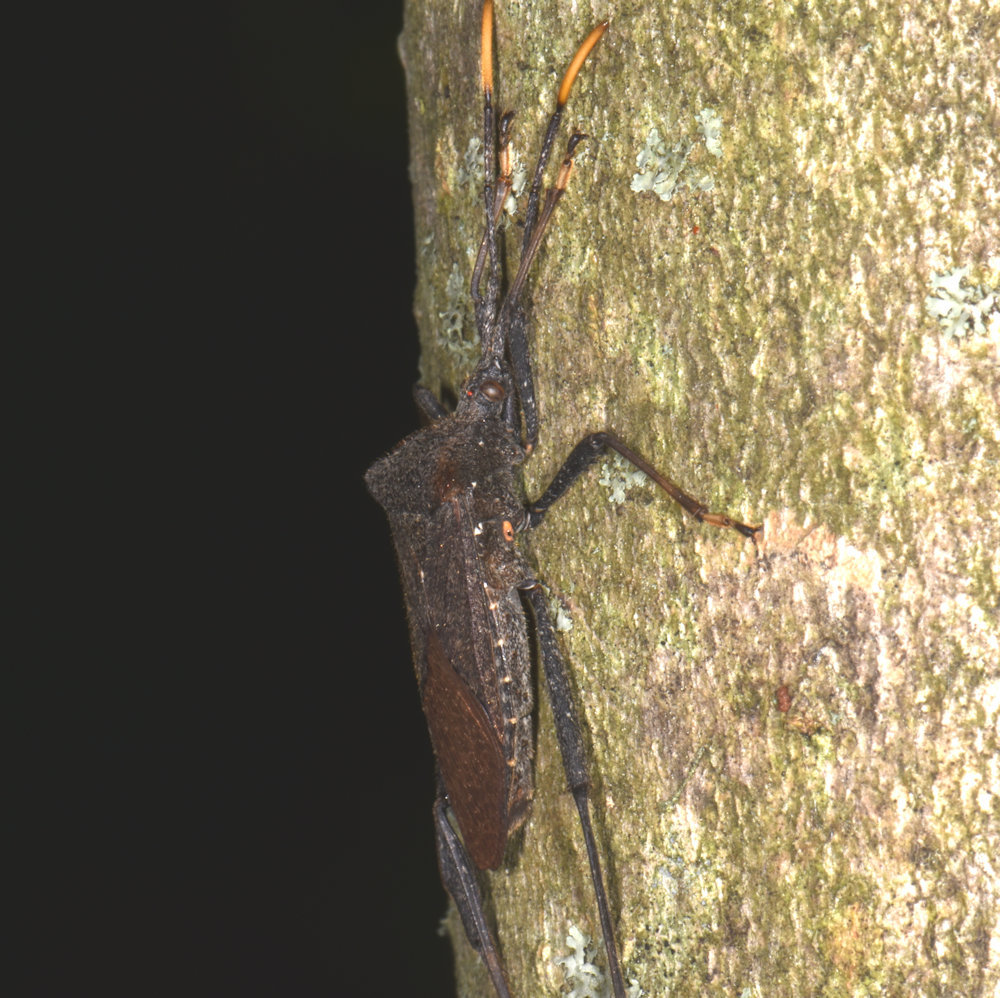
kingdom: Animalia
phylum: Arthropoda
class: Insecta
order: Hemiptera
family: Coreidae
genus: Acanthocephala
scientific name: Acanthocephala terminalis
